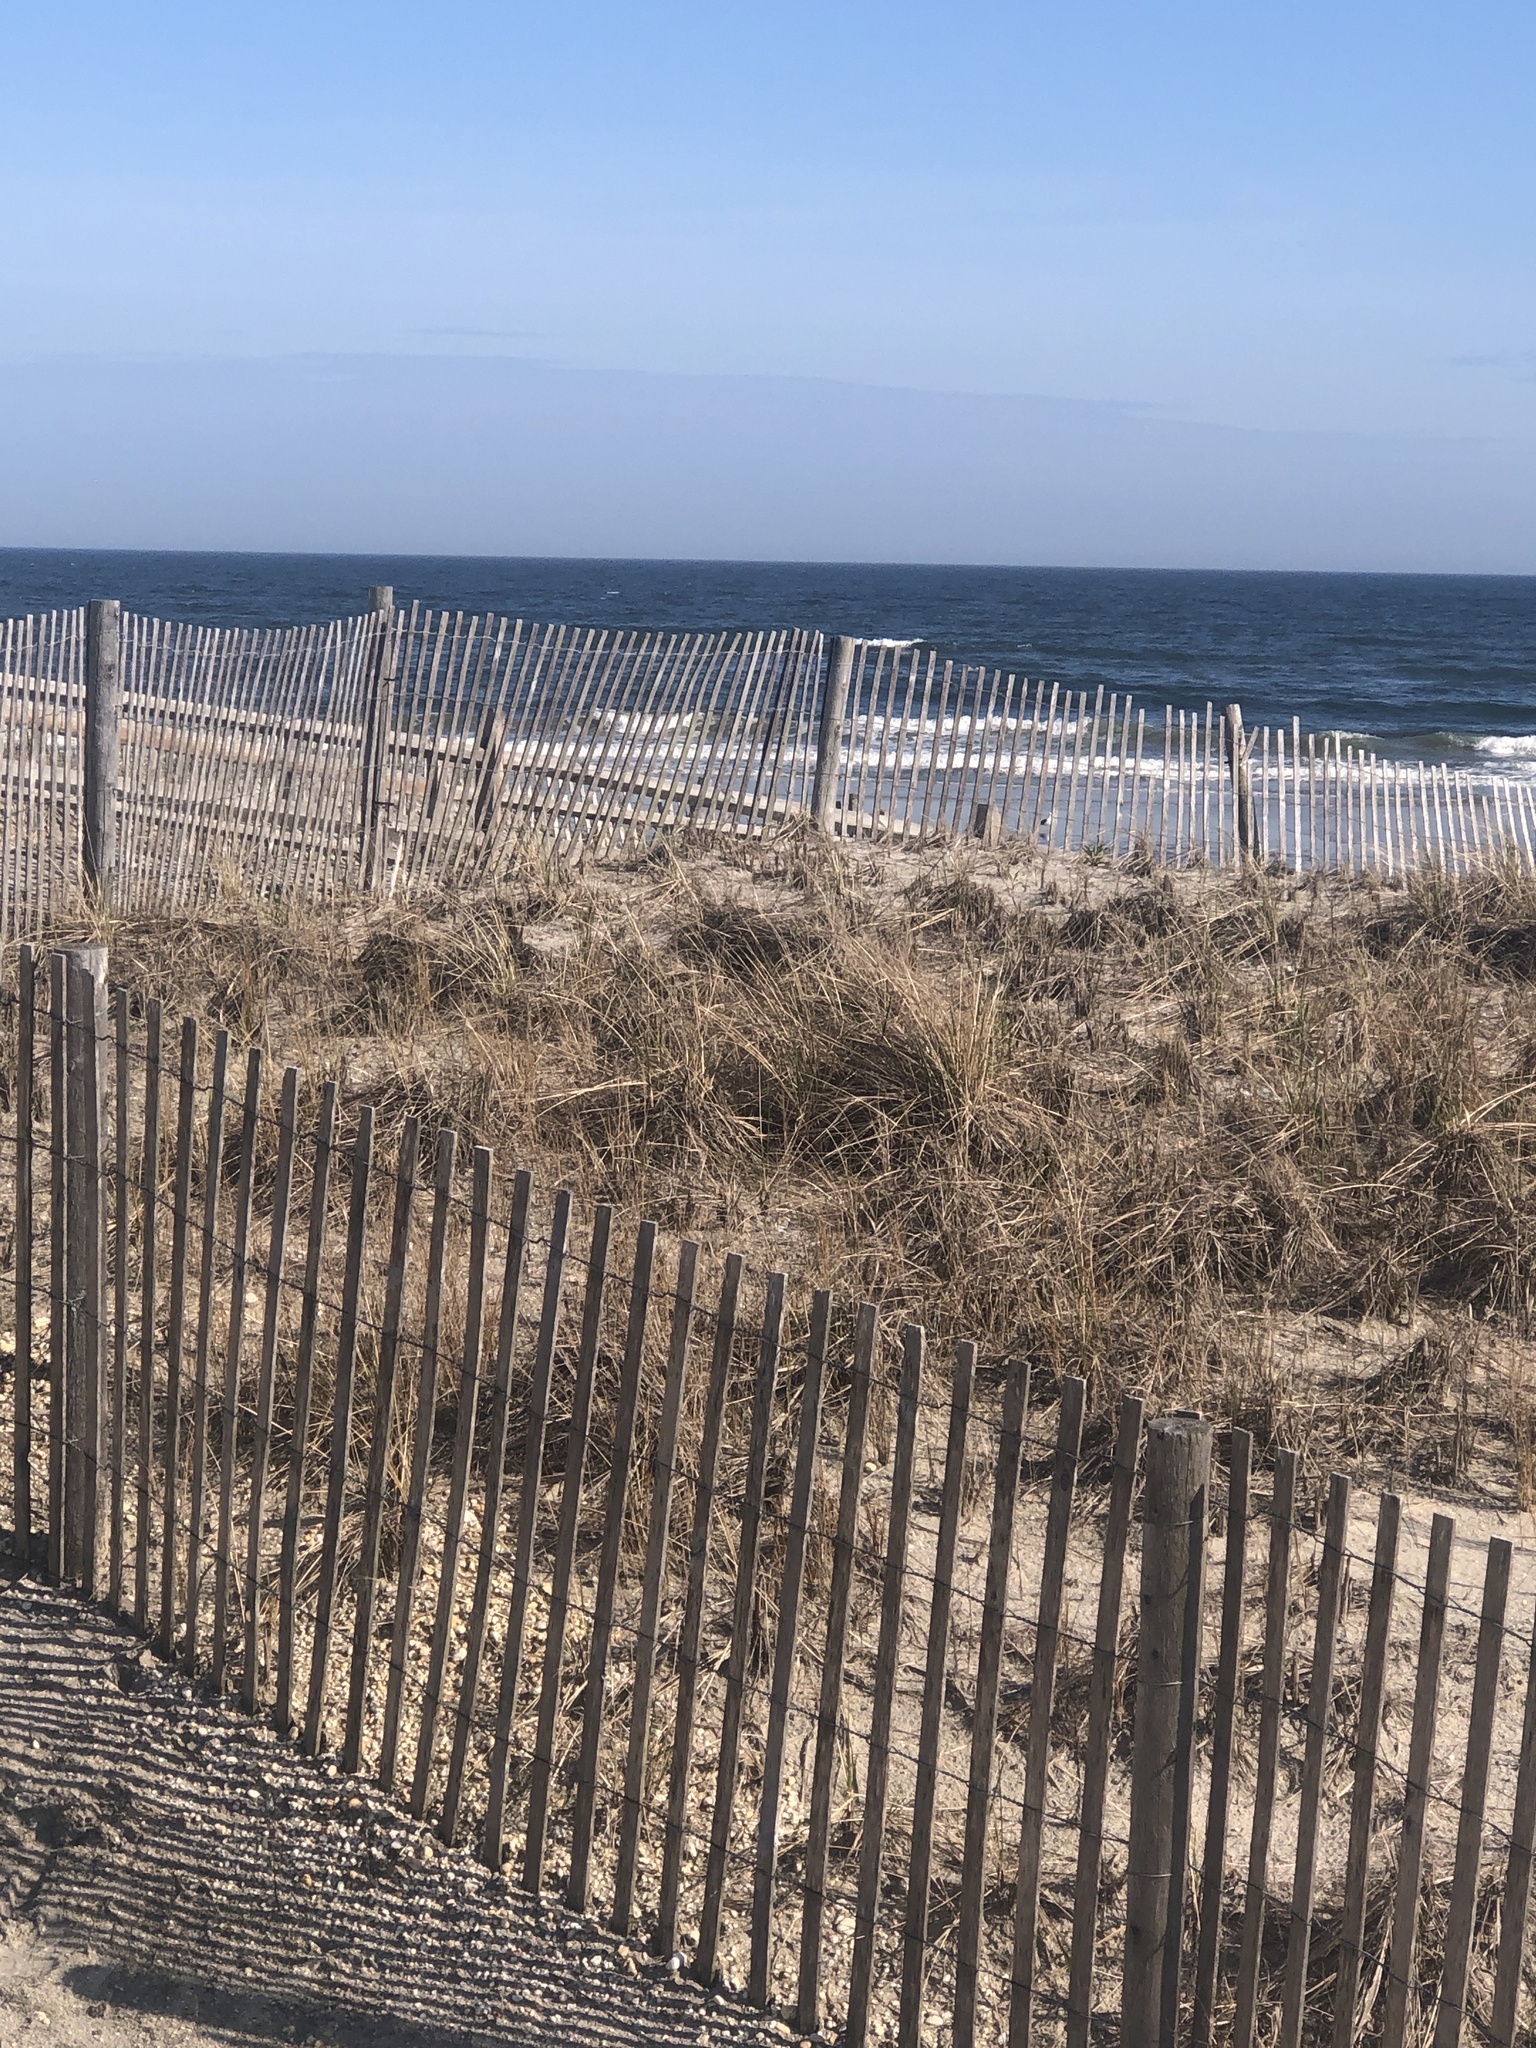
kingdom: Animalia
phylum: Chordata
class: Aves
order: Passeriformes
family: Mimidae
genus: Mimus
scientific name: Mimus polyglottos
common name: Northern mockingbird
